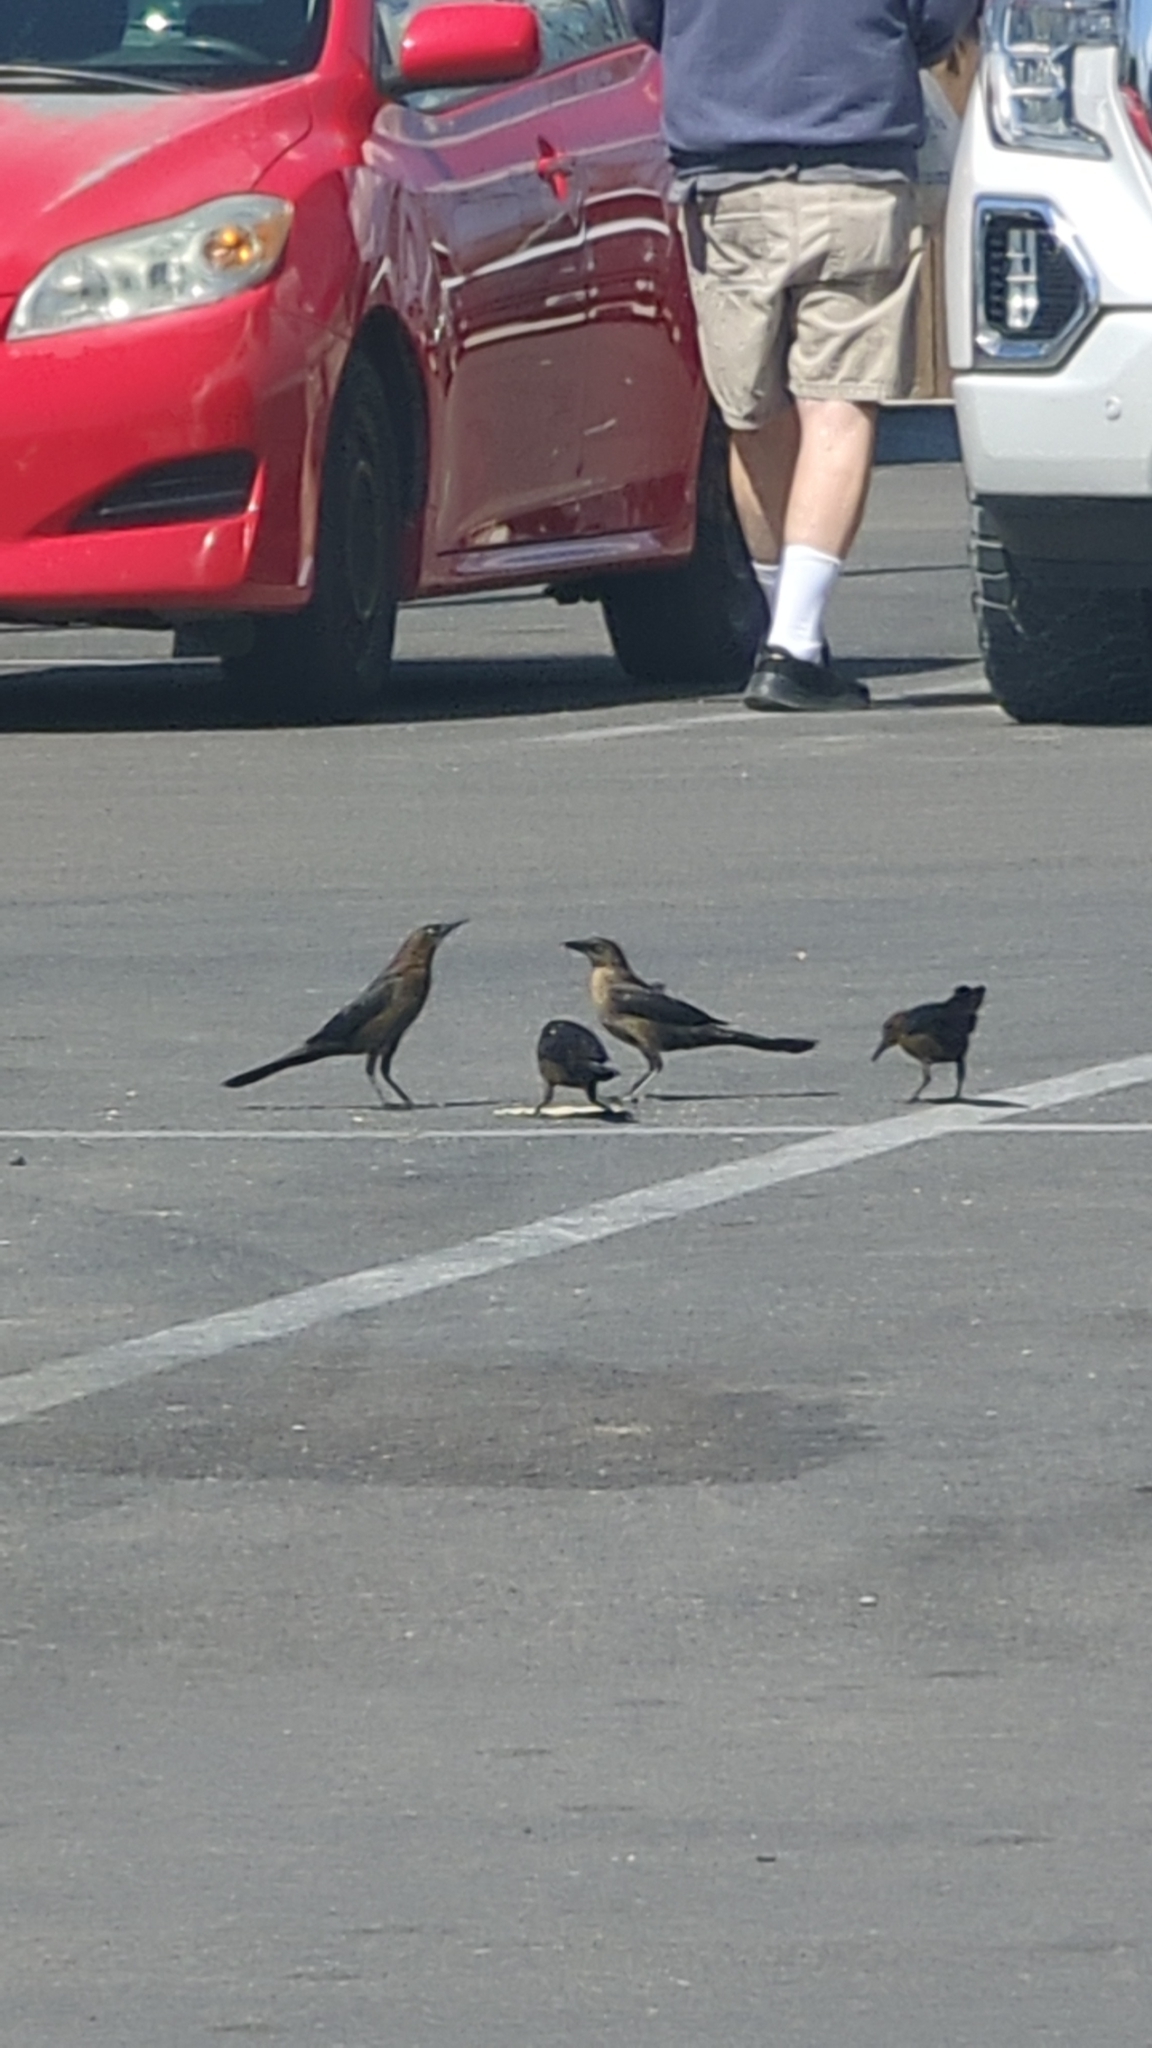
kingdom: Animalia
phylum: Chordata
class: Aves
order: Passeriformes
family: Icteridae
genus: Quiscalus
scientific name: Quiscalus mexicanus
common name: Great-tailed grackle
